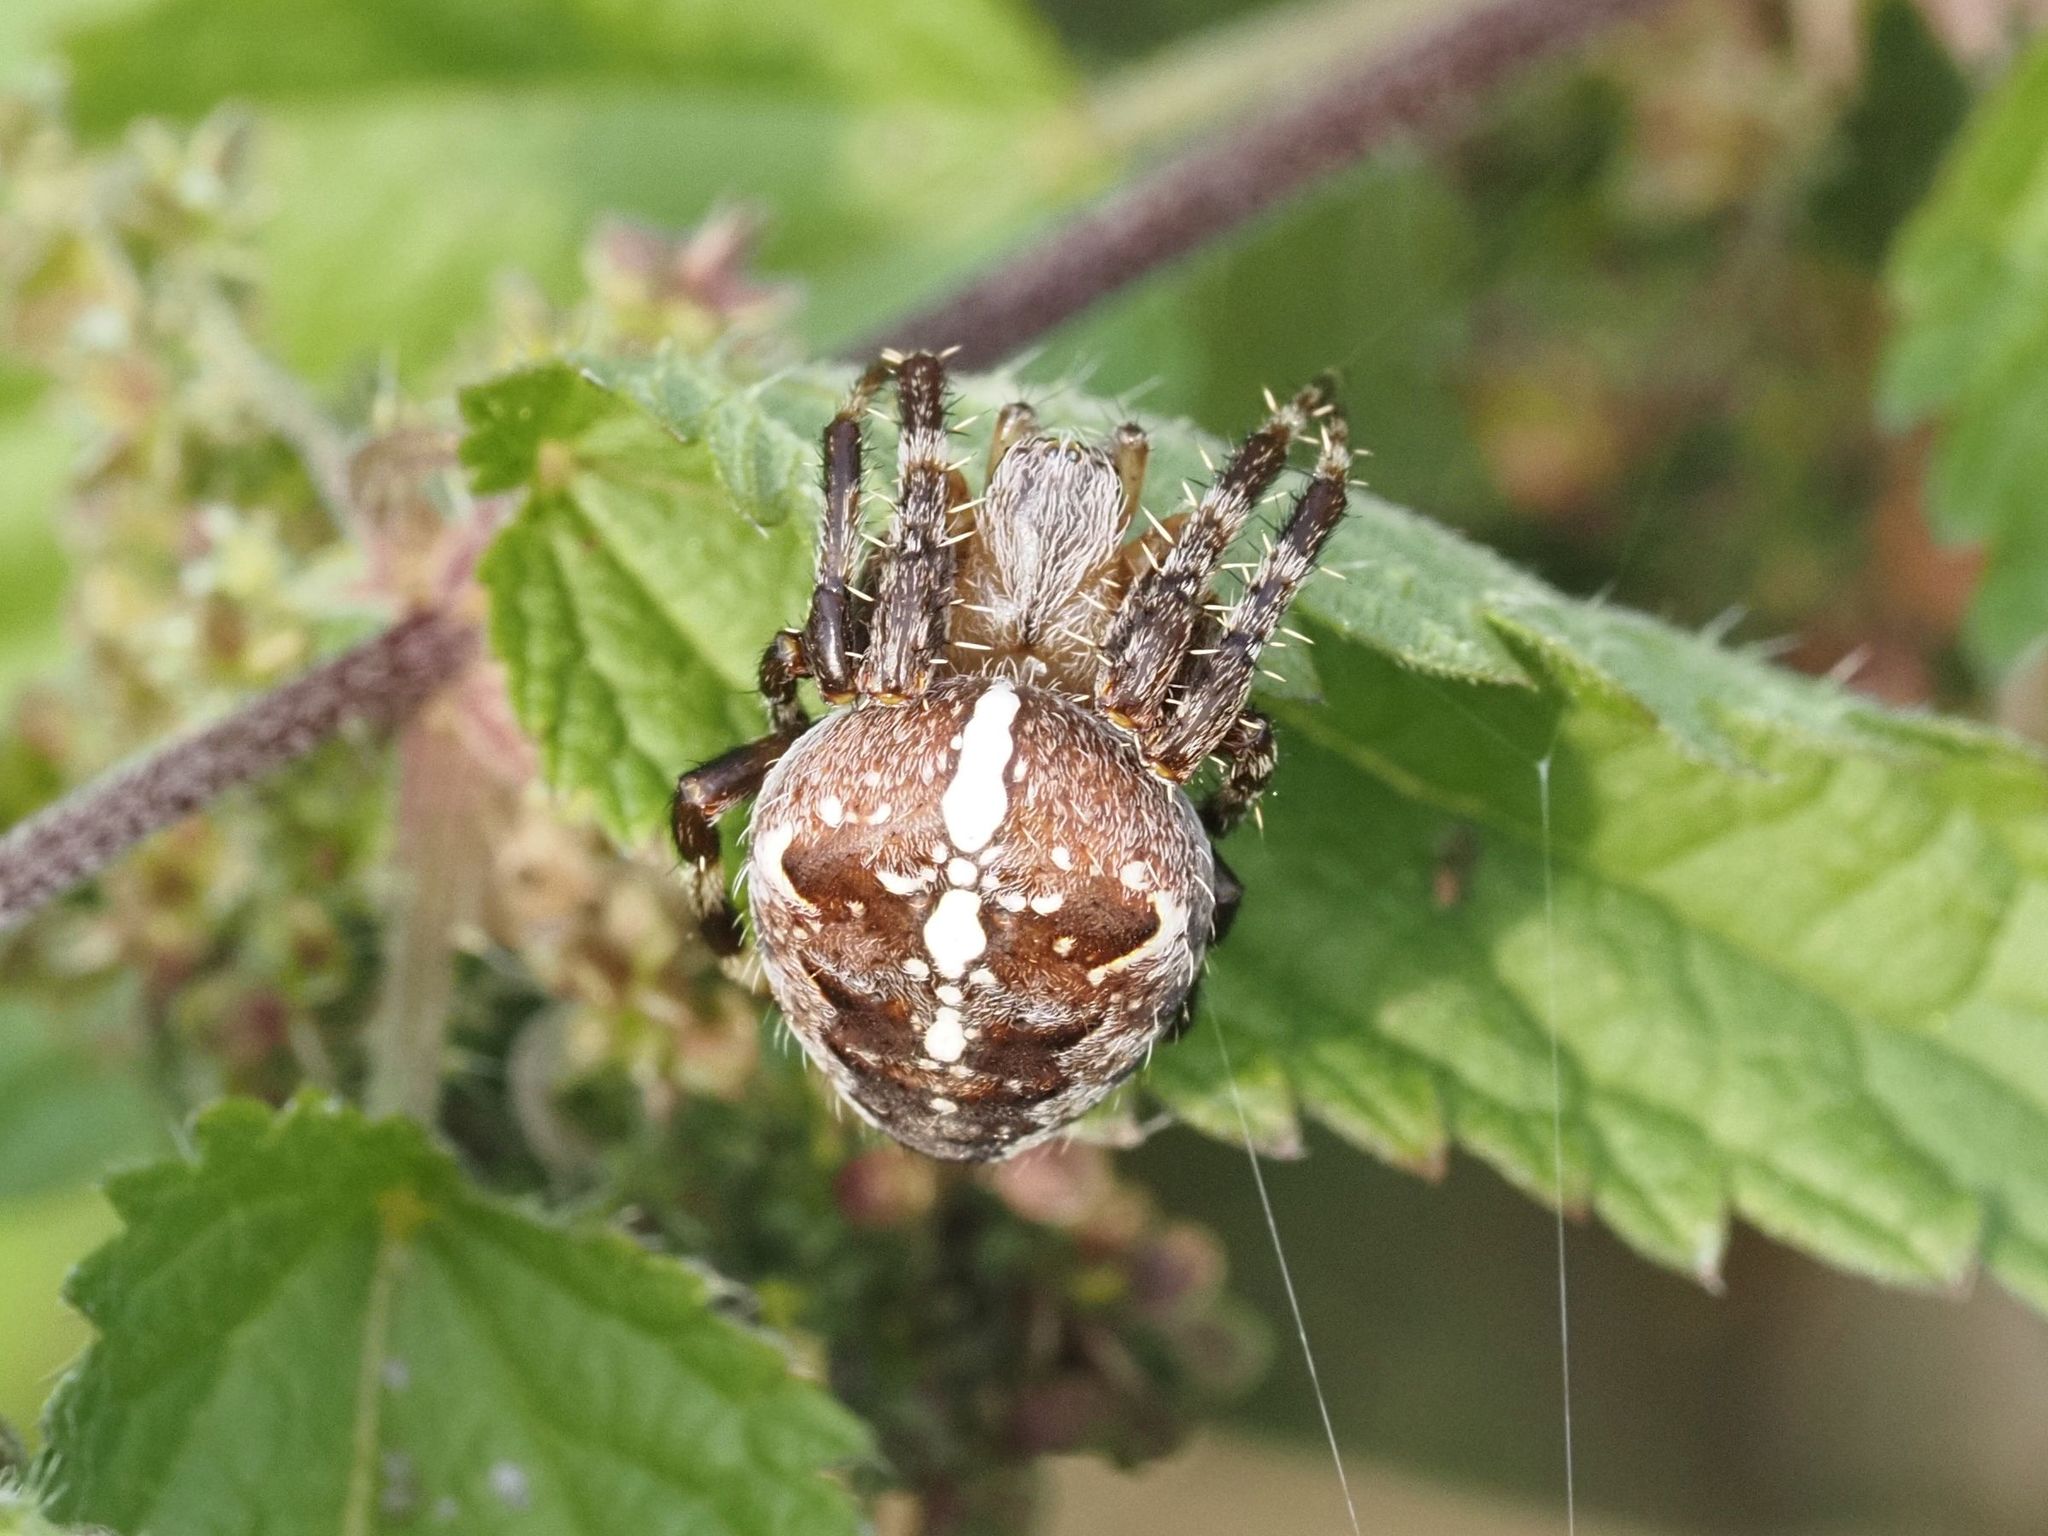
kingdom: Animalia
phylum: Arthropoda
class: Arachnida
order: Araneae
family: Araneidae
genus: Araneus
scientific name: Araneus diadematus
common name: Cross orbweaver
